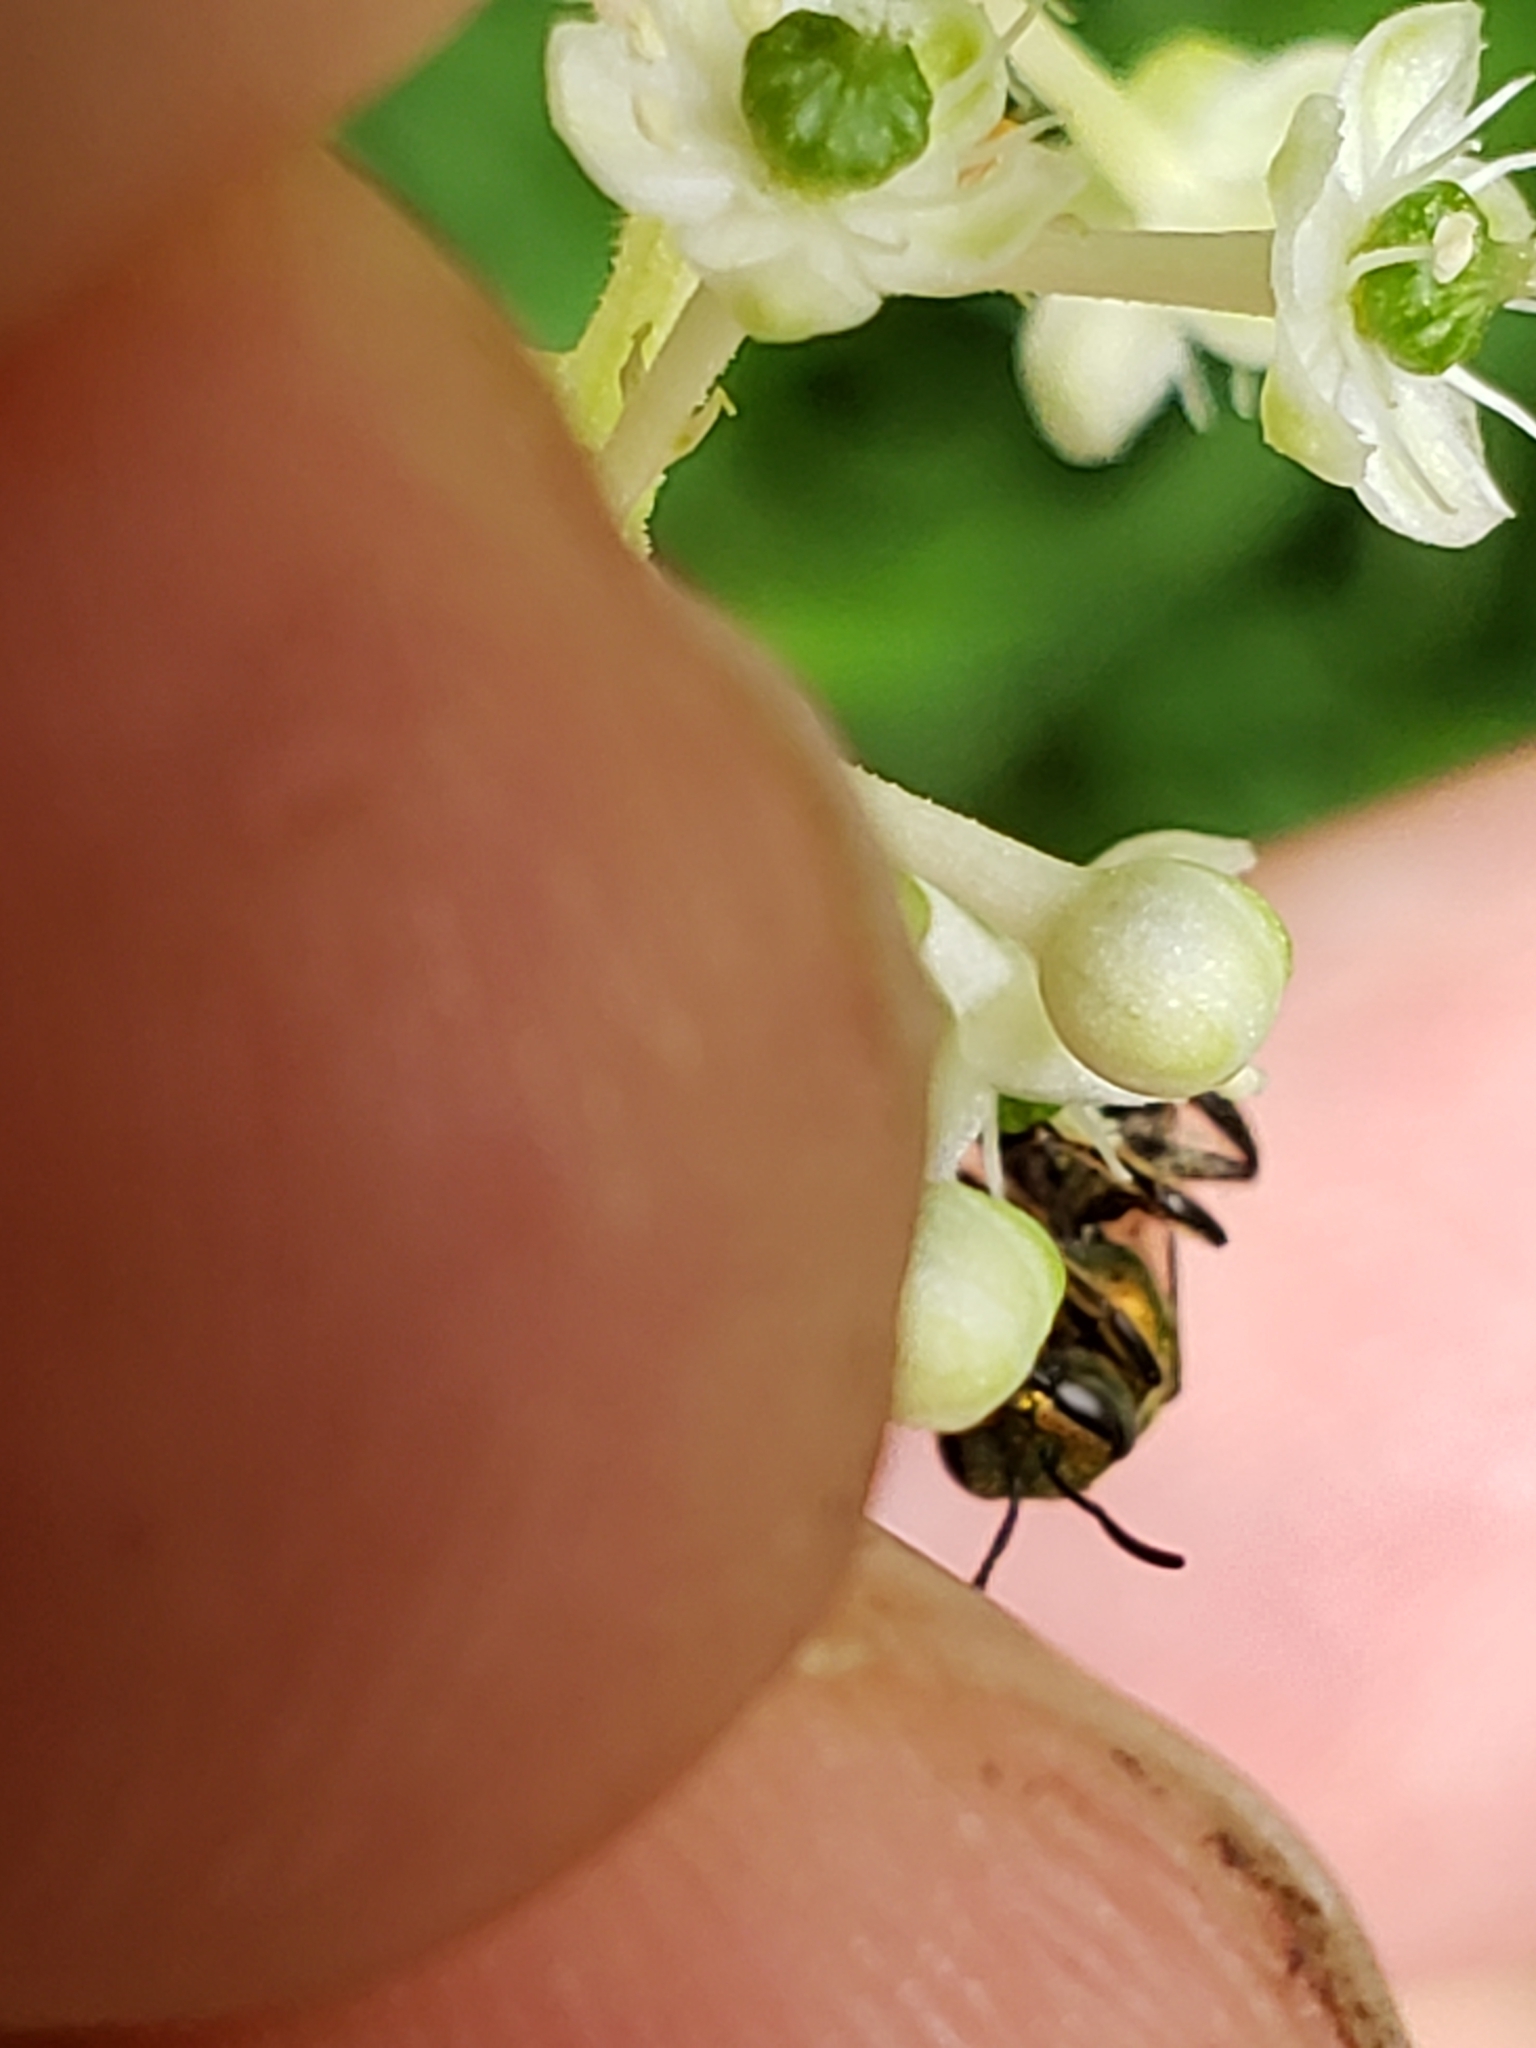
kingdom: Animalia
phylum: Arthropoda
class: Insecta
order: Hymenoptera
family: Halictidae
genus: Augochlora
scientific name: Augochlora pura
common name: Pure green sweat bee
